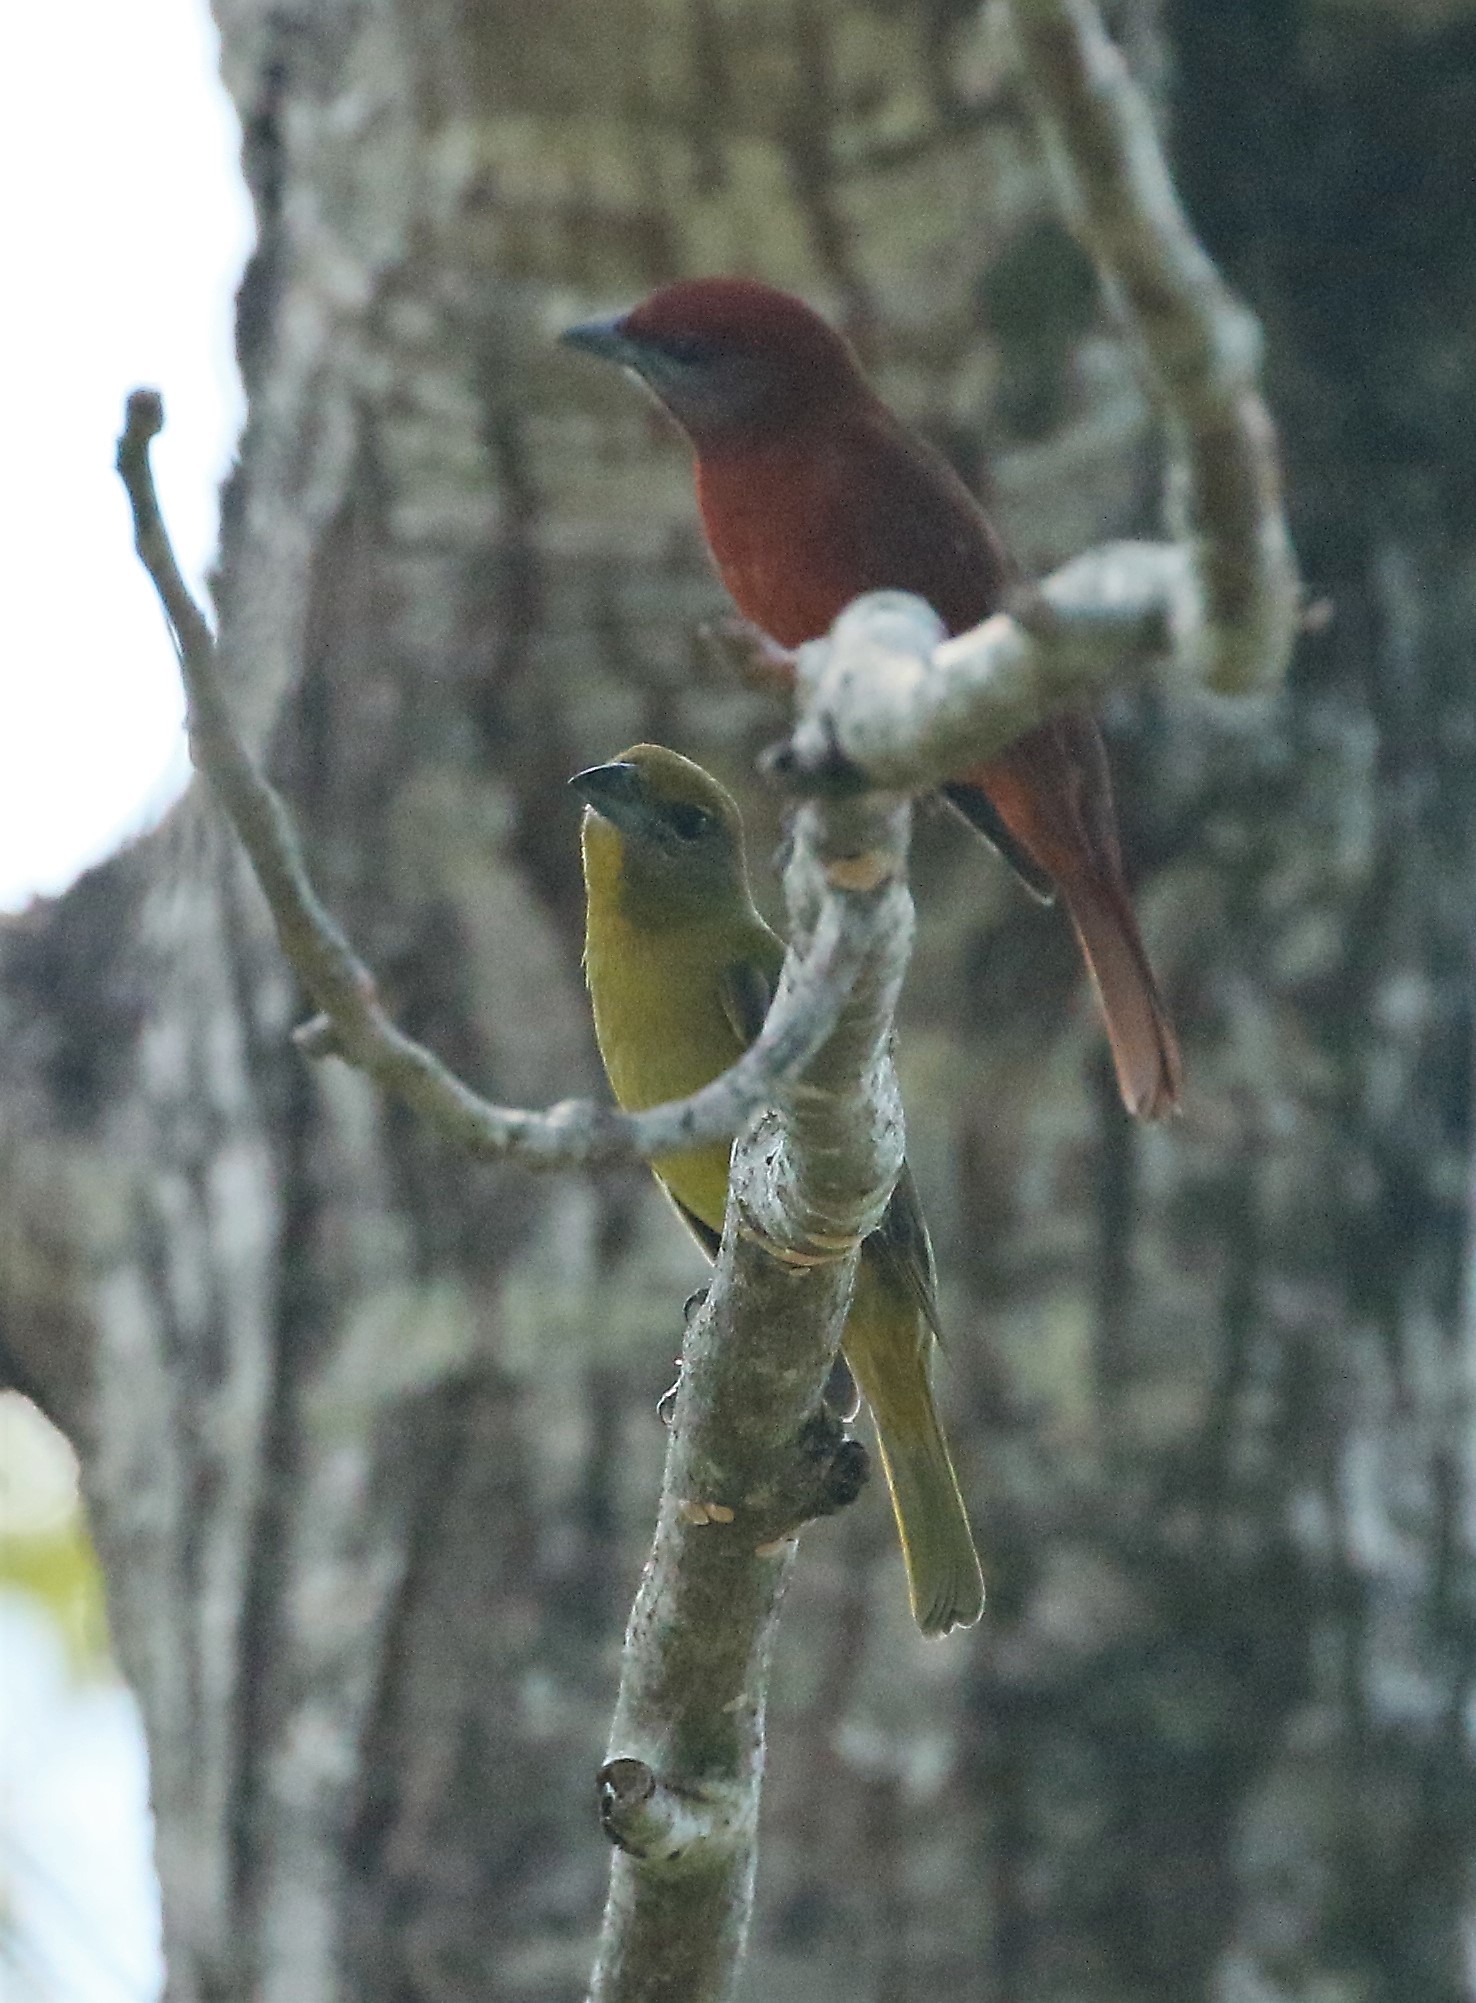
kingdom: Animalia
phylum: Chordata
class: Aves
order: Passeriformes
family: Cardinalidae
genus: Piranga
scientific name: Piranga flava
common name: Red tanager
